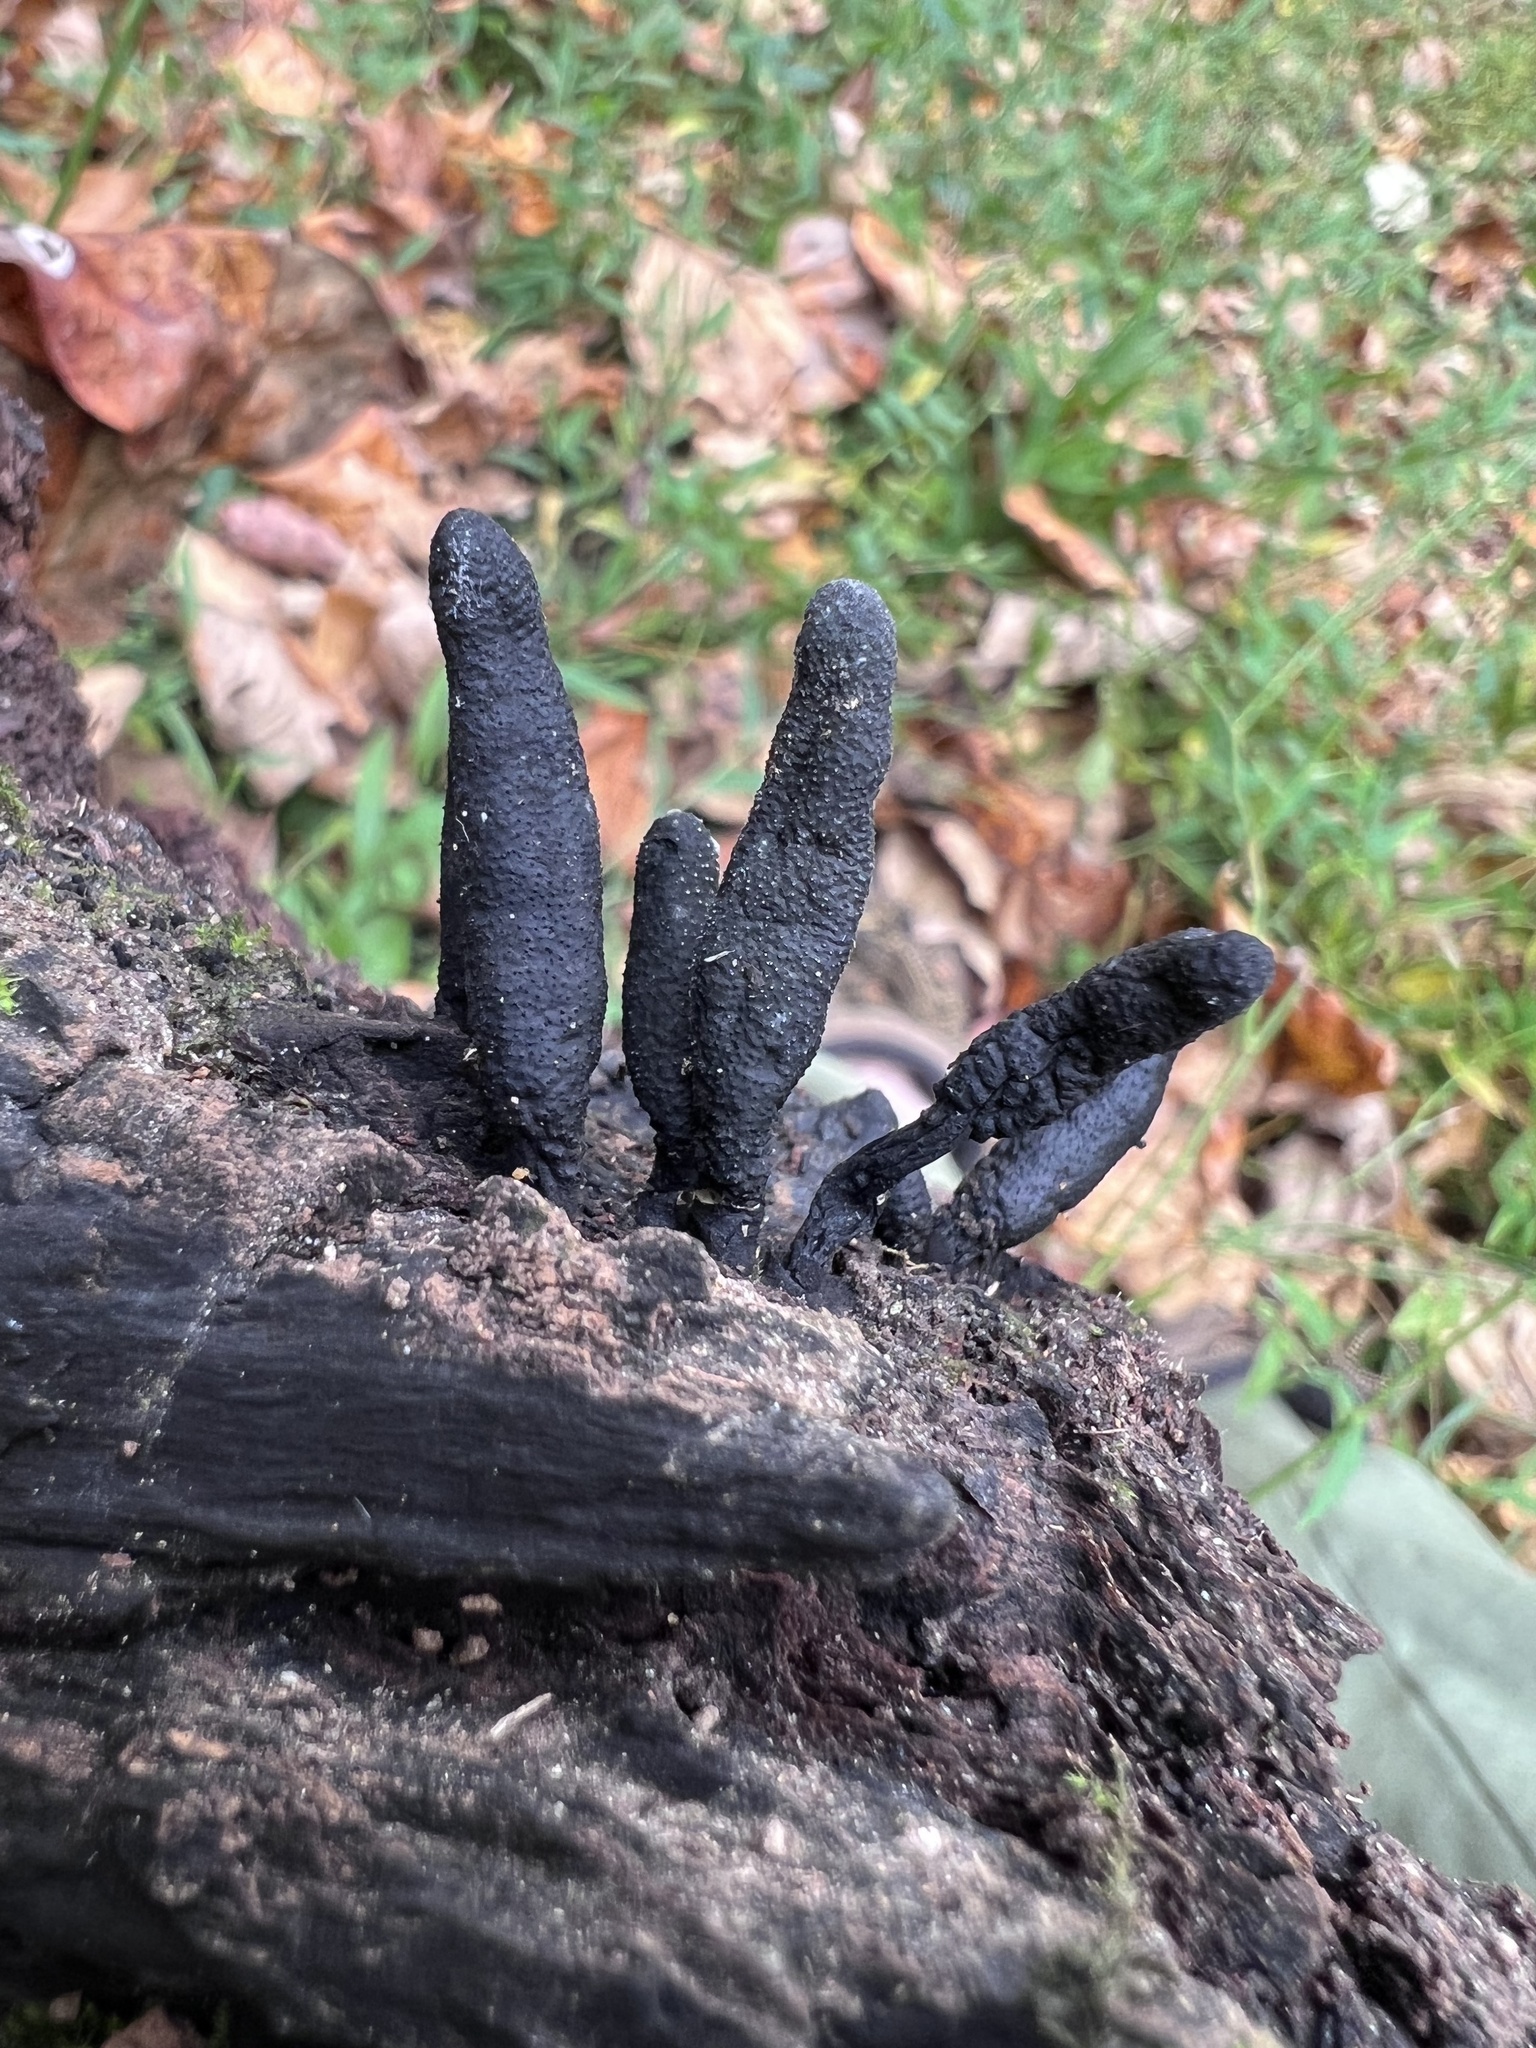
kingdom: Fungi
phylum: Ascomycota
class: Sordariomycetes
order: Xylariales
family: Xylariaceae
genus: Xylaria
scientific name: Xylaria polymorpha
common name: Dead man's fingers
